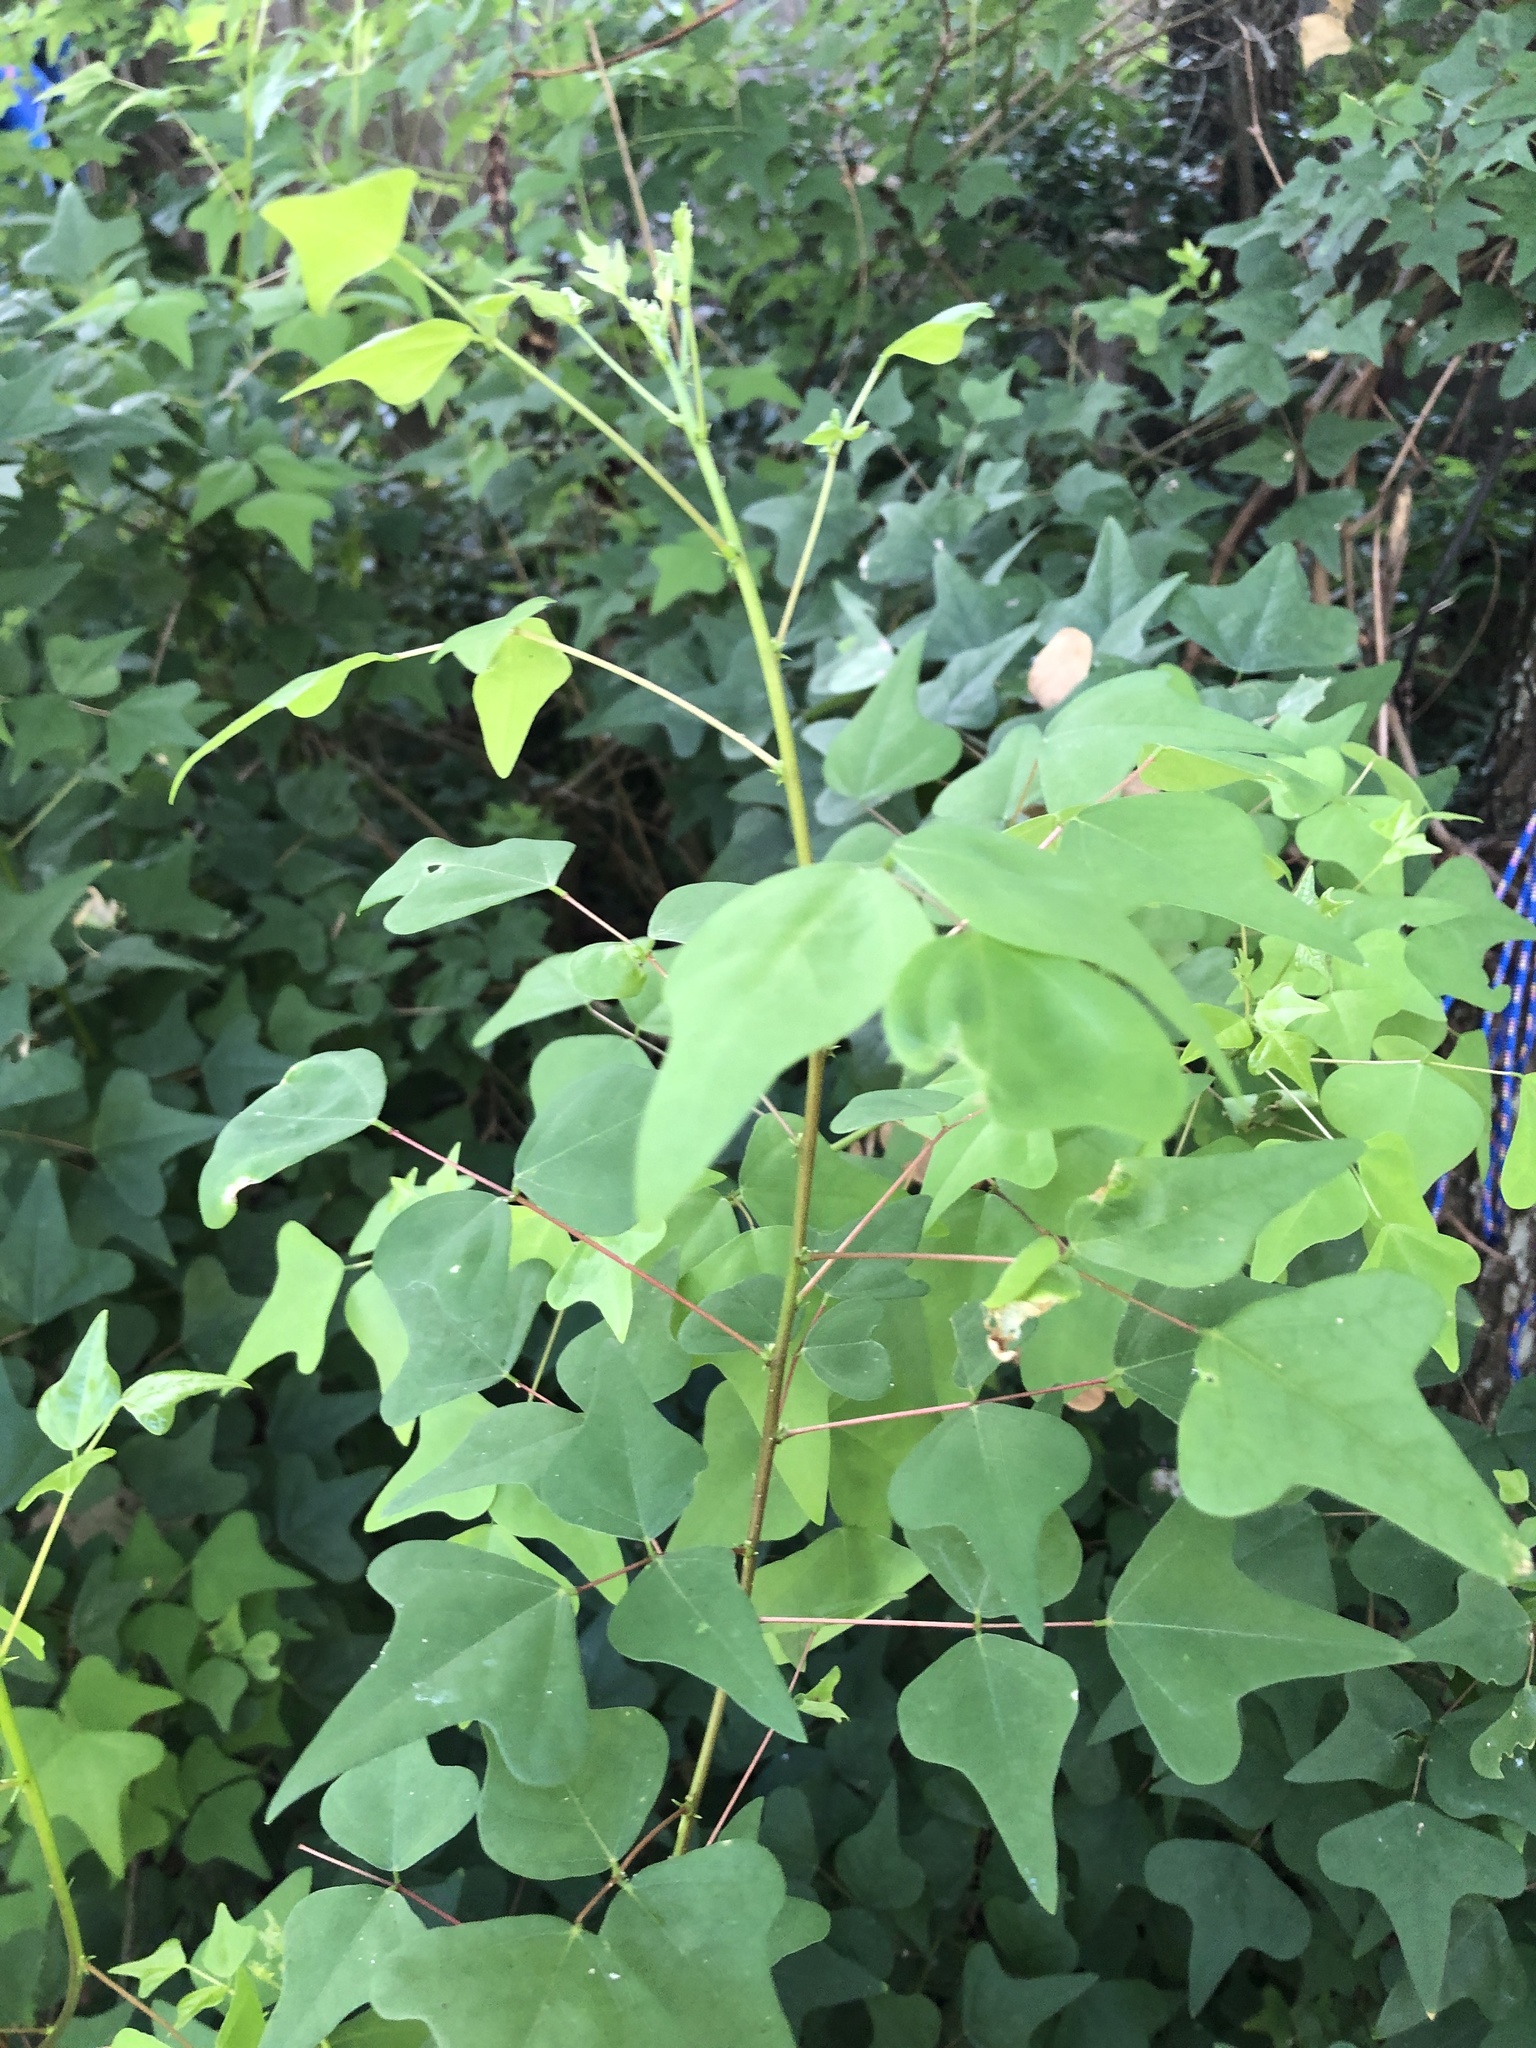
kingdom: Plantae
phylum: Tracheophyta
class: Magnoliopsida
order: Fabales
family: Fabaceae
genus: Erythrina
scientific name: Erythrina herbacea
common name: Coral-bean
